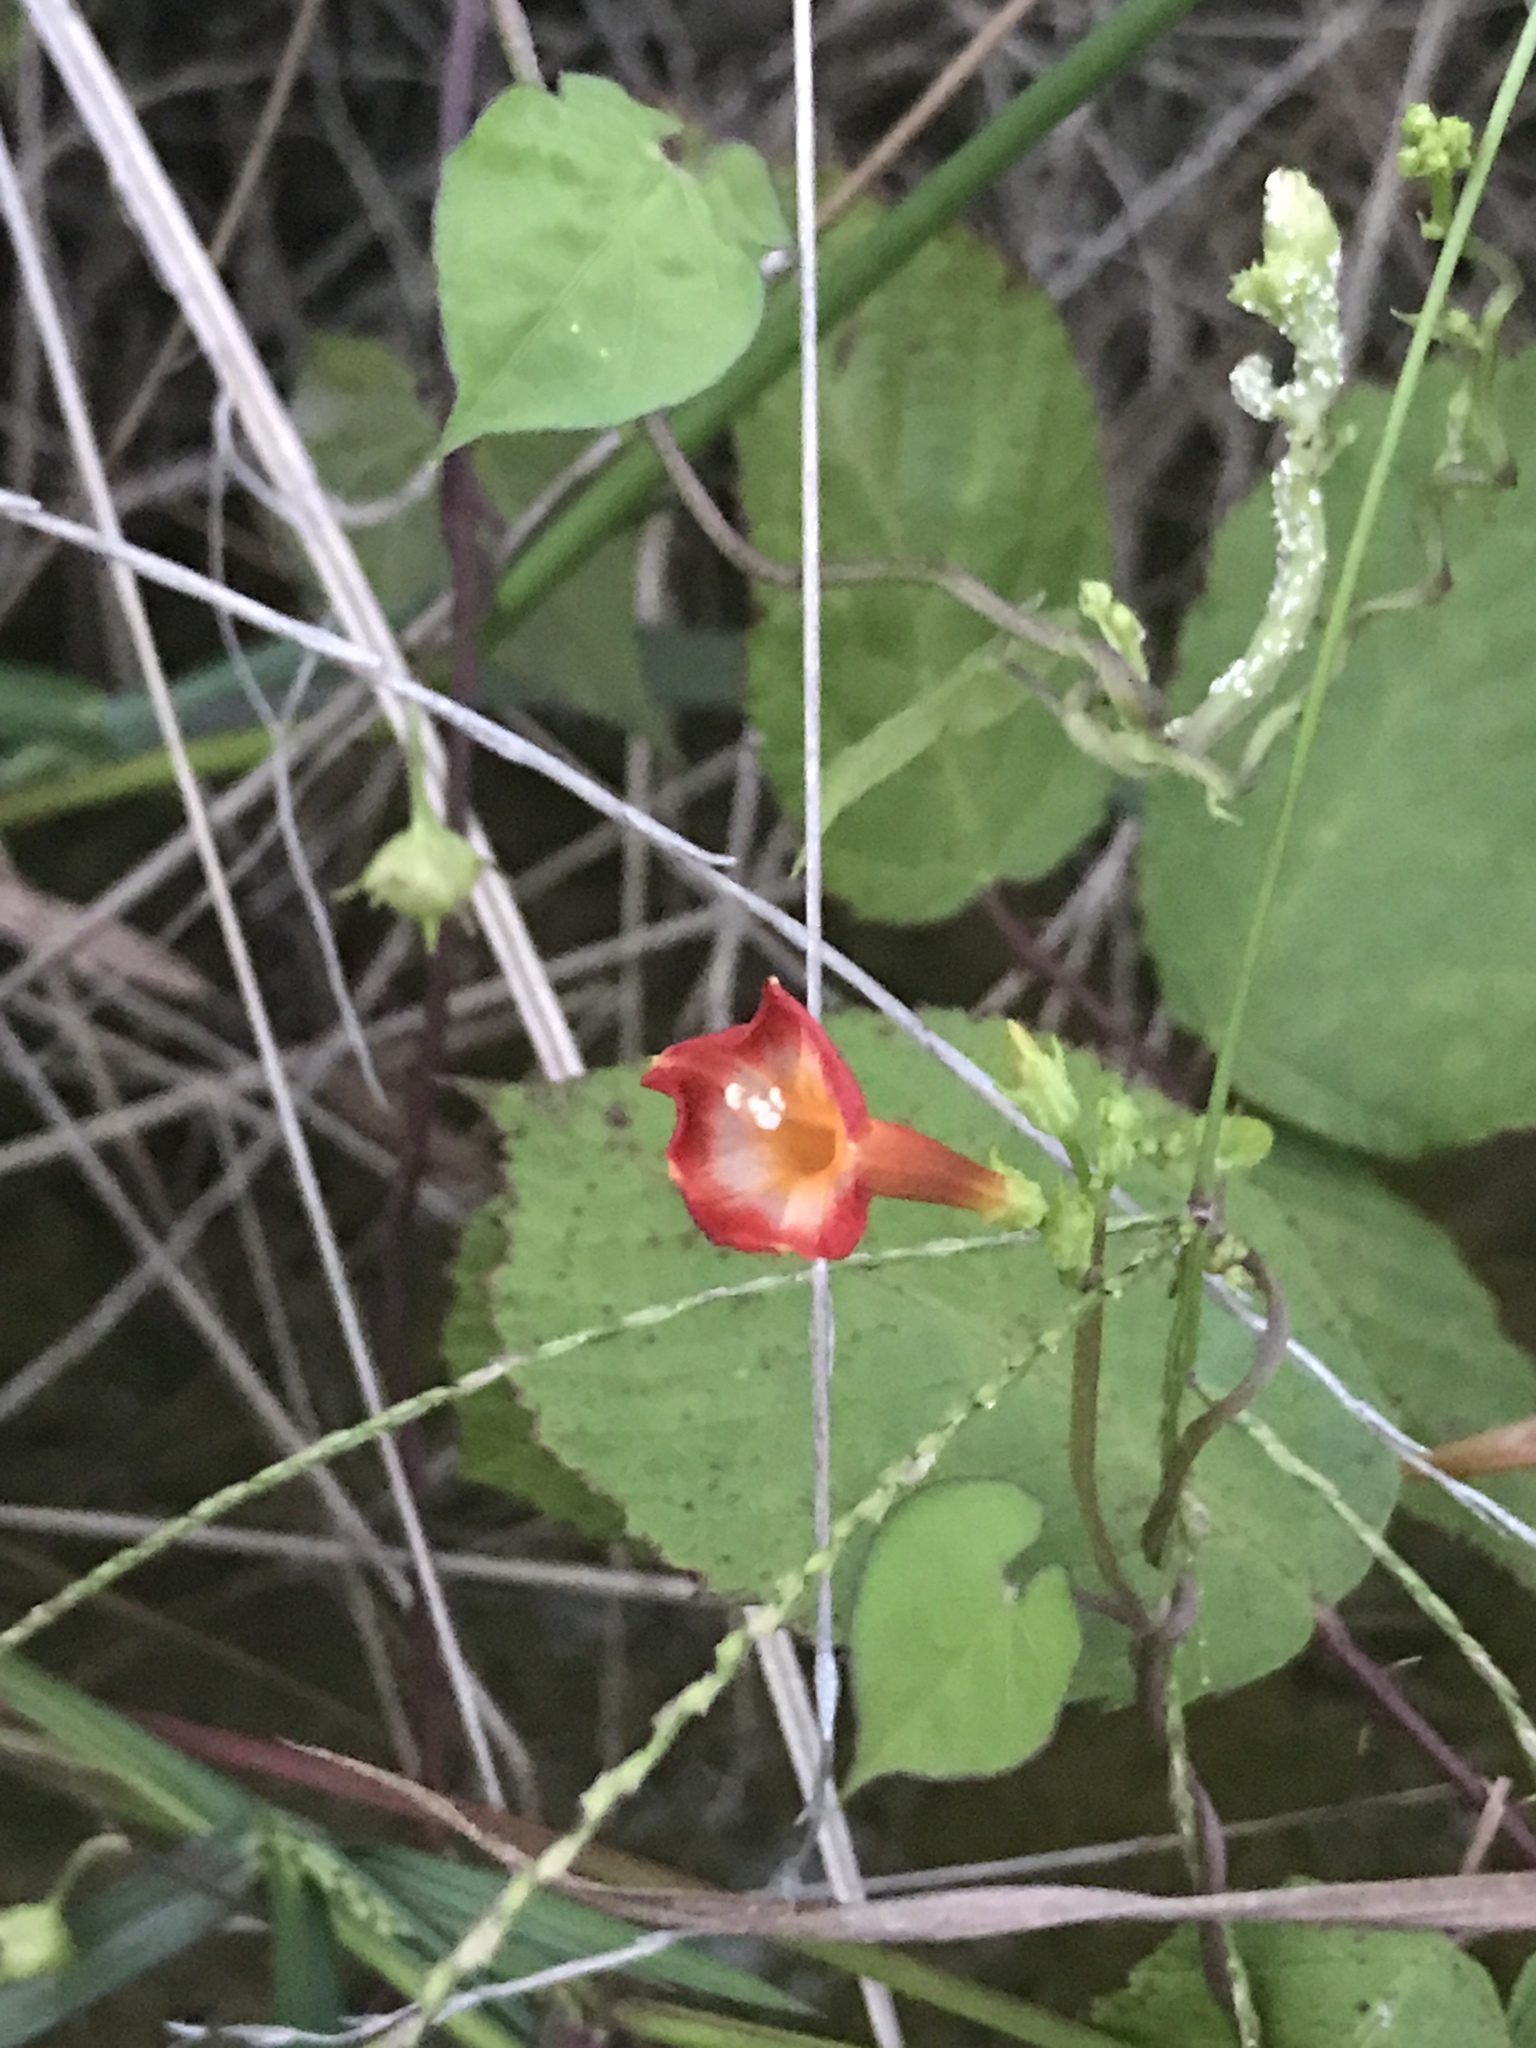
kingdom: Plantae
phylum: Tracheophyta
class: Magnoliopsida
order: Solanales
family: Convolvulaceae
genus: Ipomoea
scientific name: Ipomoea coccinea
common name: Red morning-glory
